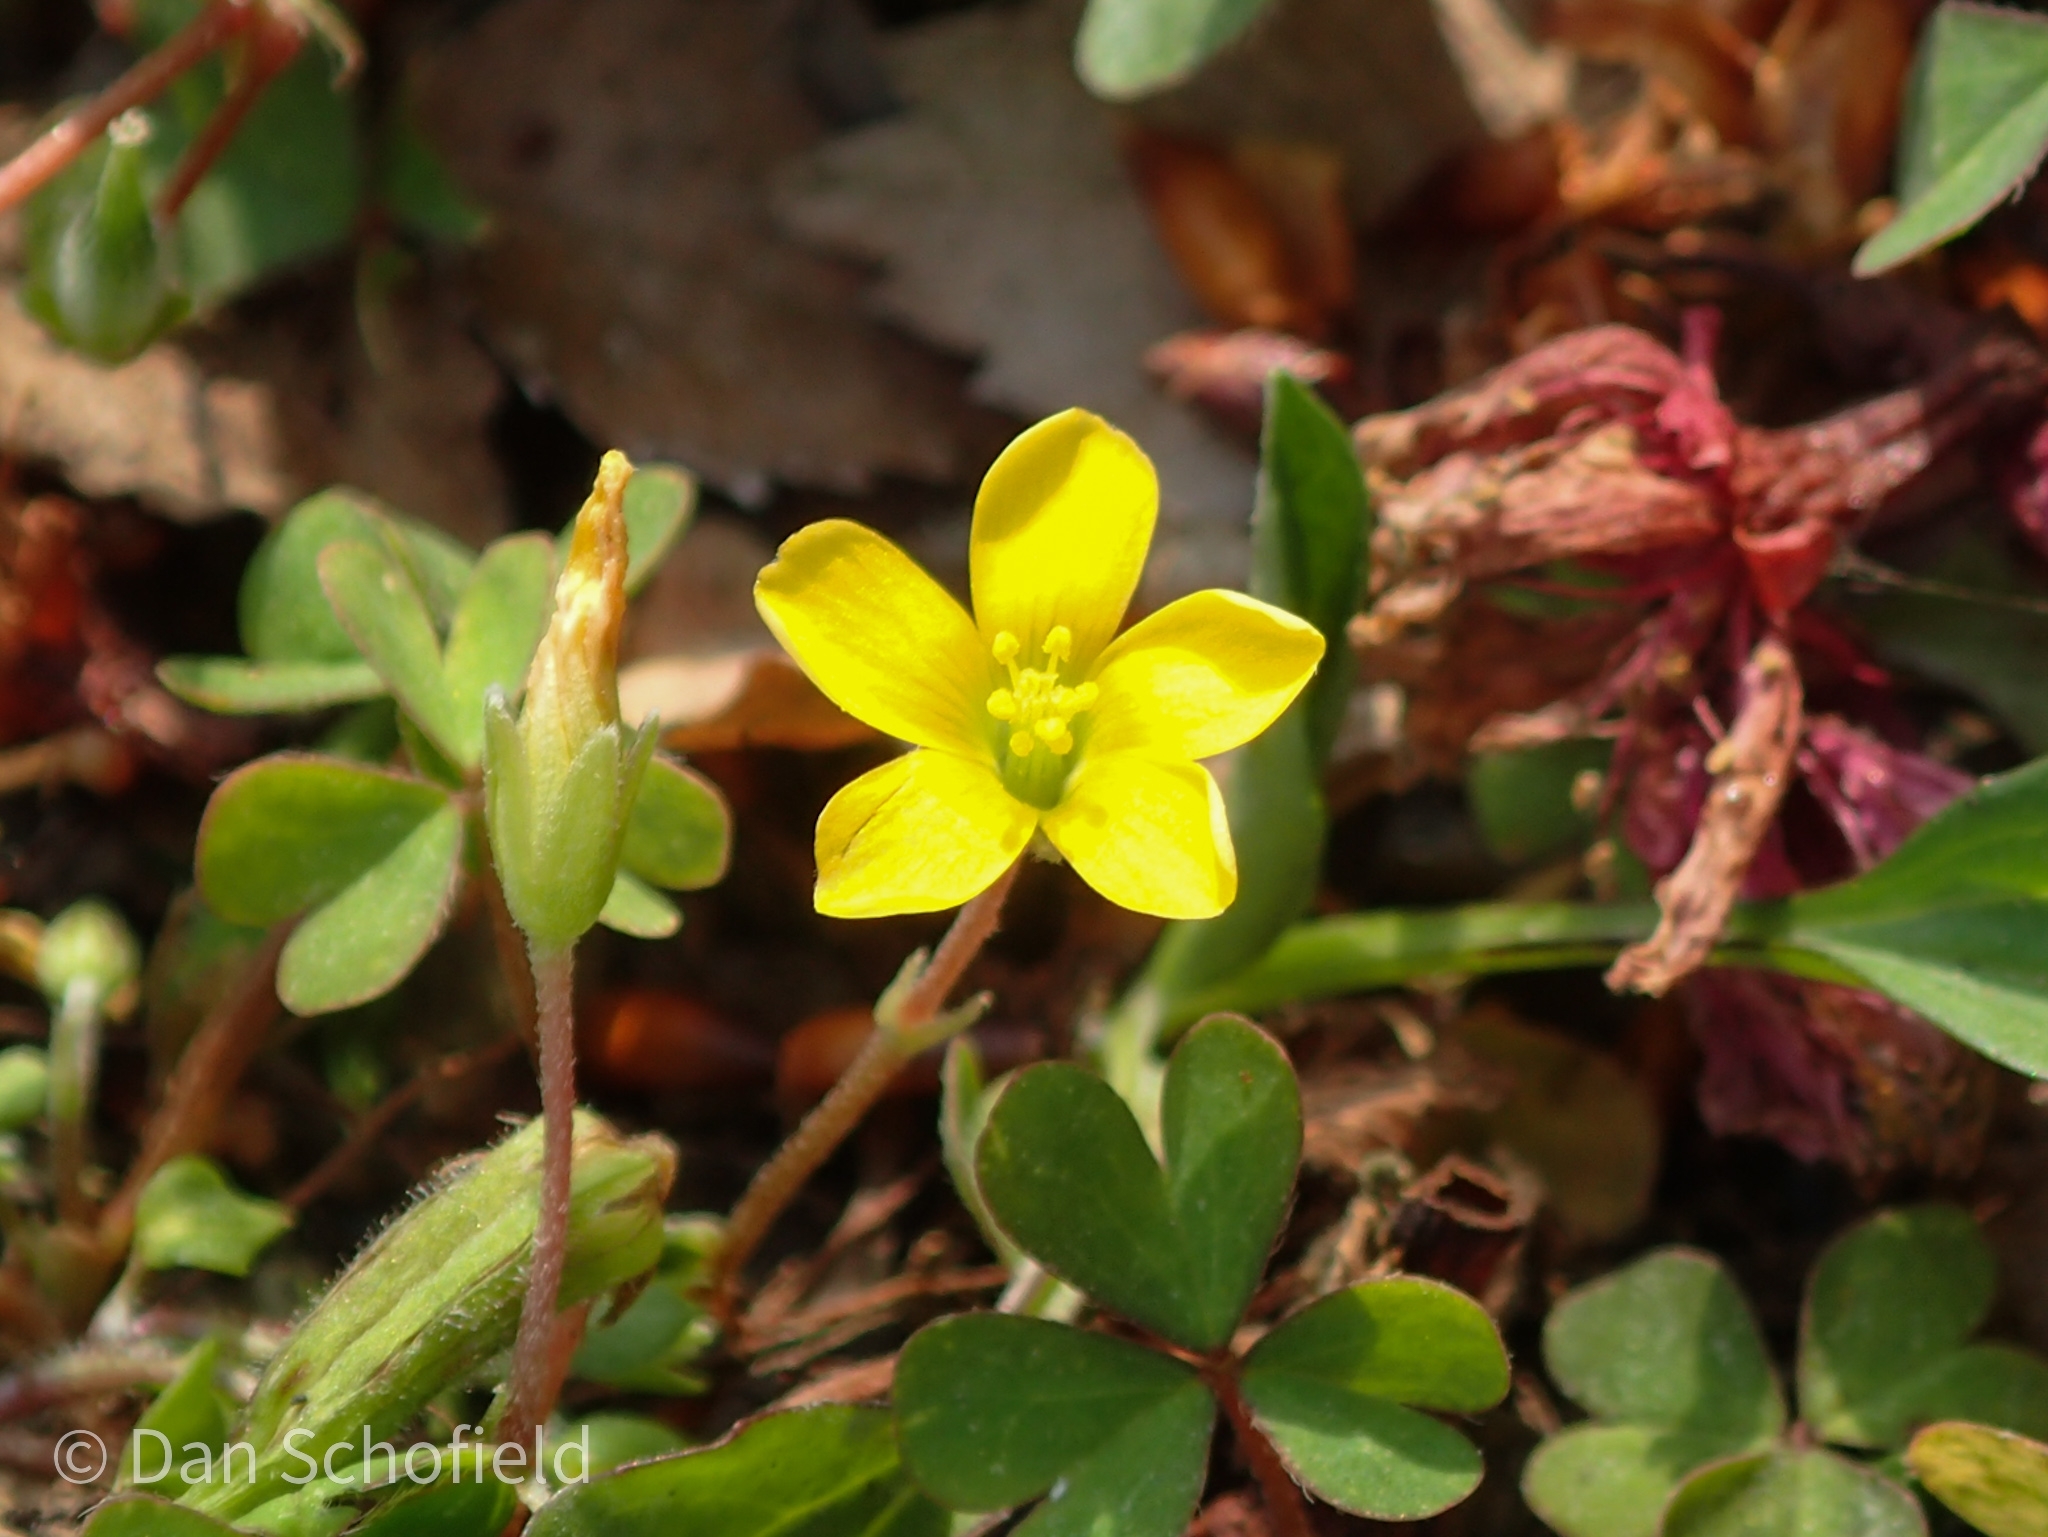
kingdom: Plantae
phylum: Tracheophyta
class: Magnoliopsida
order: Oxalidales
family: Oxalidaceae
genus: Oxalis
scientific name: Oxalis corniculata
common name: Procumbent yellow-sorrel
